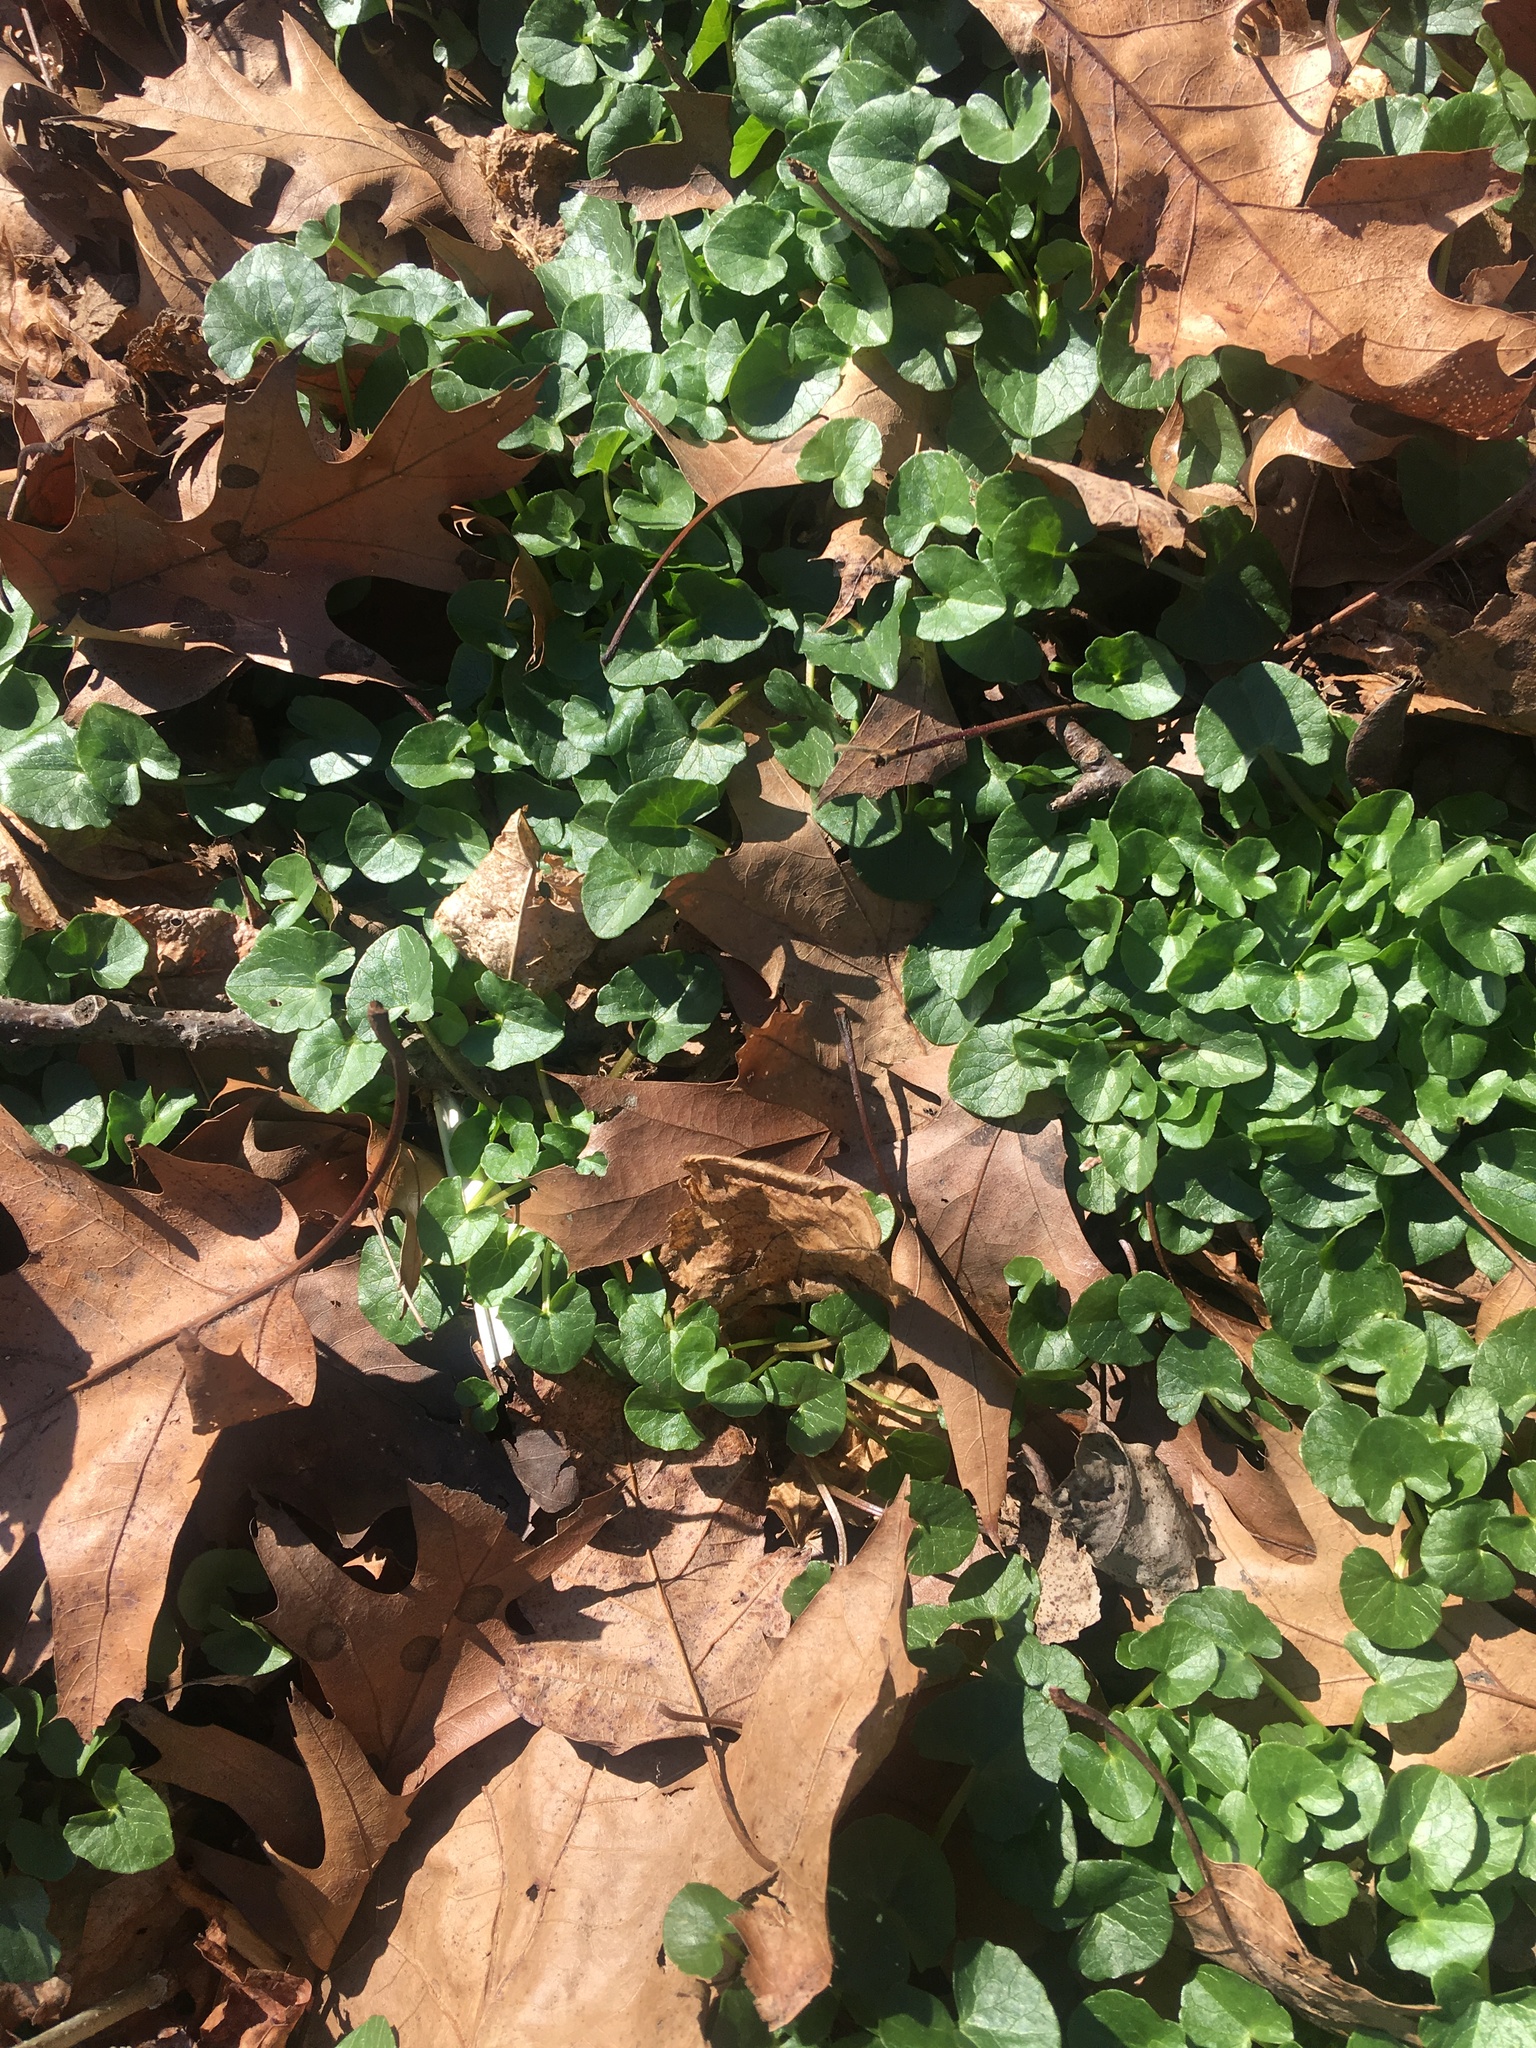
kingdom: Plantae
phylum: Tracheophyta
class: Magnoliopsida
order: Ranunculales
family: Ranunculaceae
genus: Ficaria
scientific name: Ficaria verna
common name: Lesser celandine
